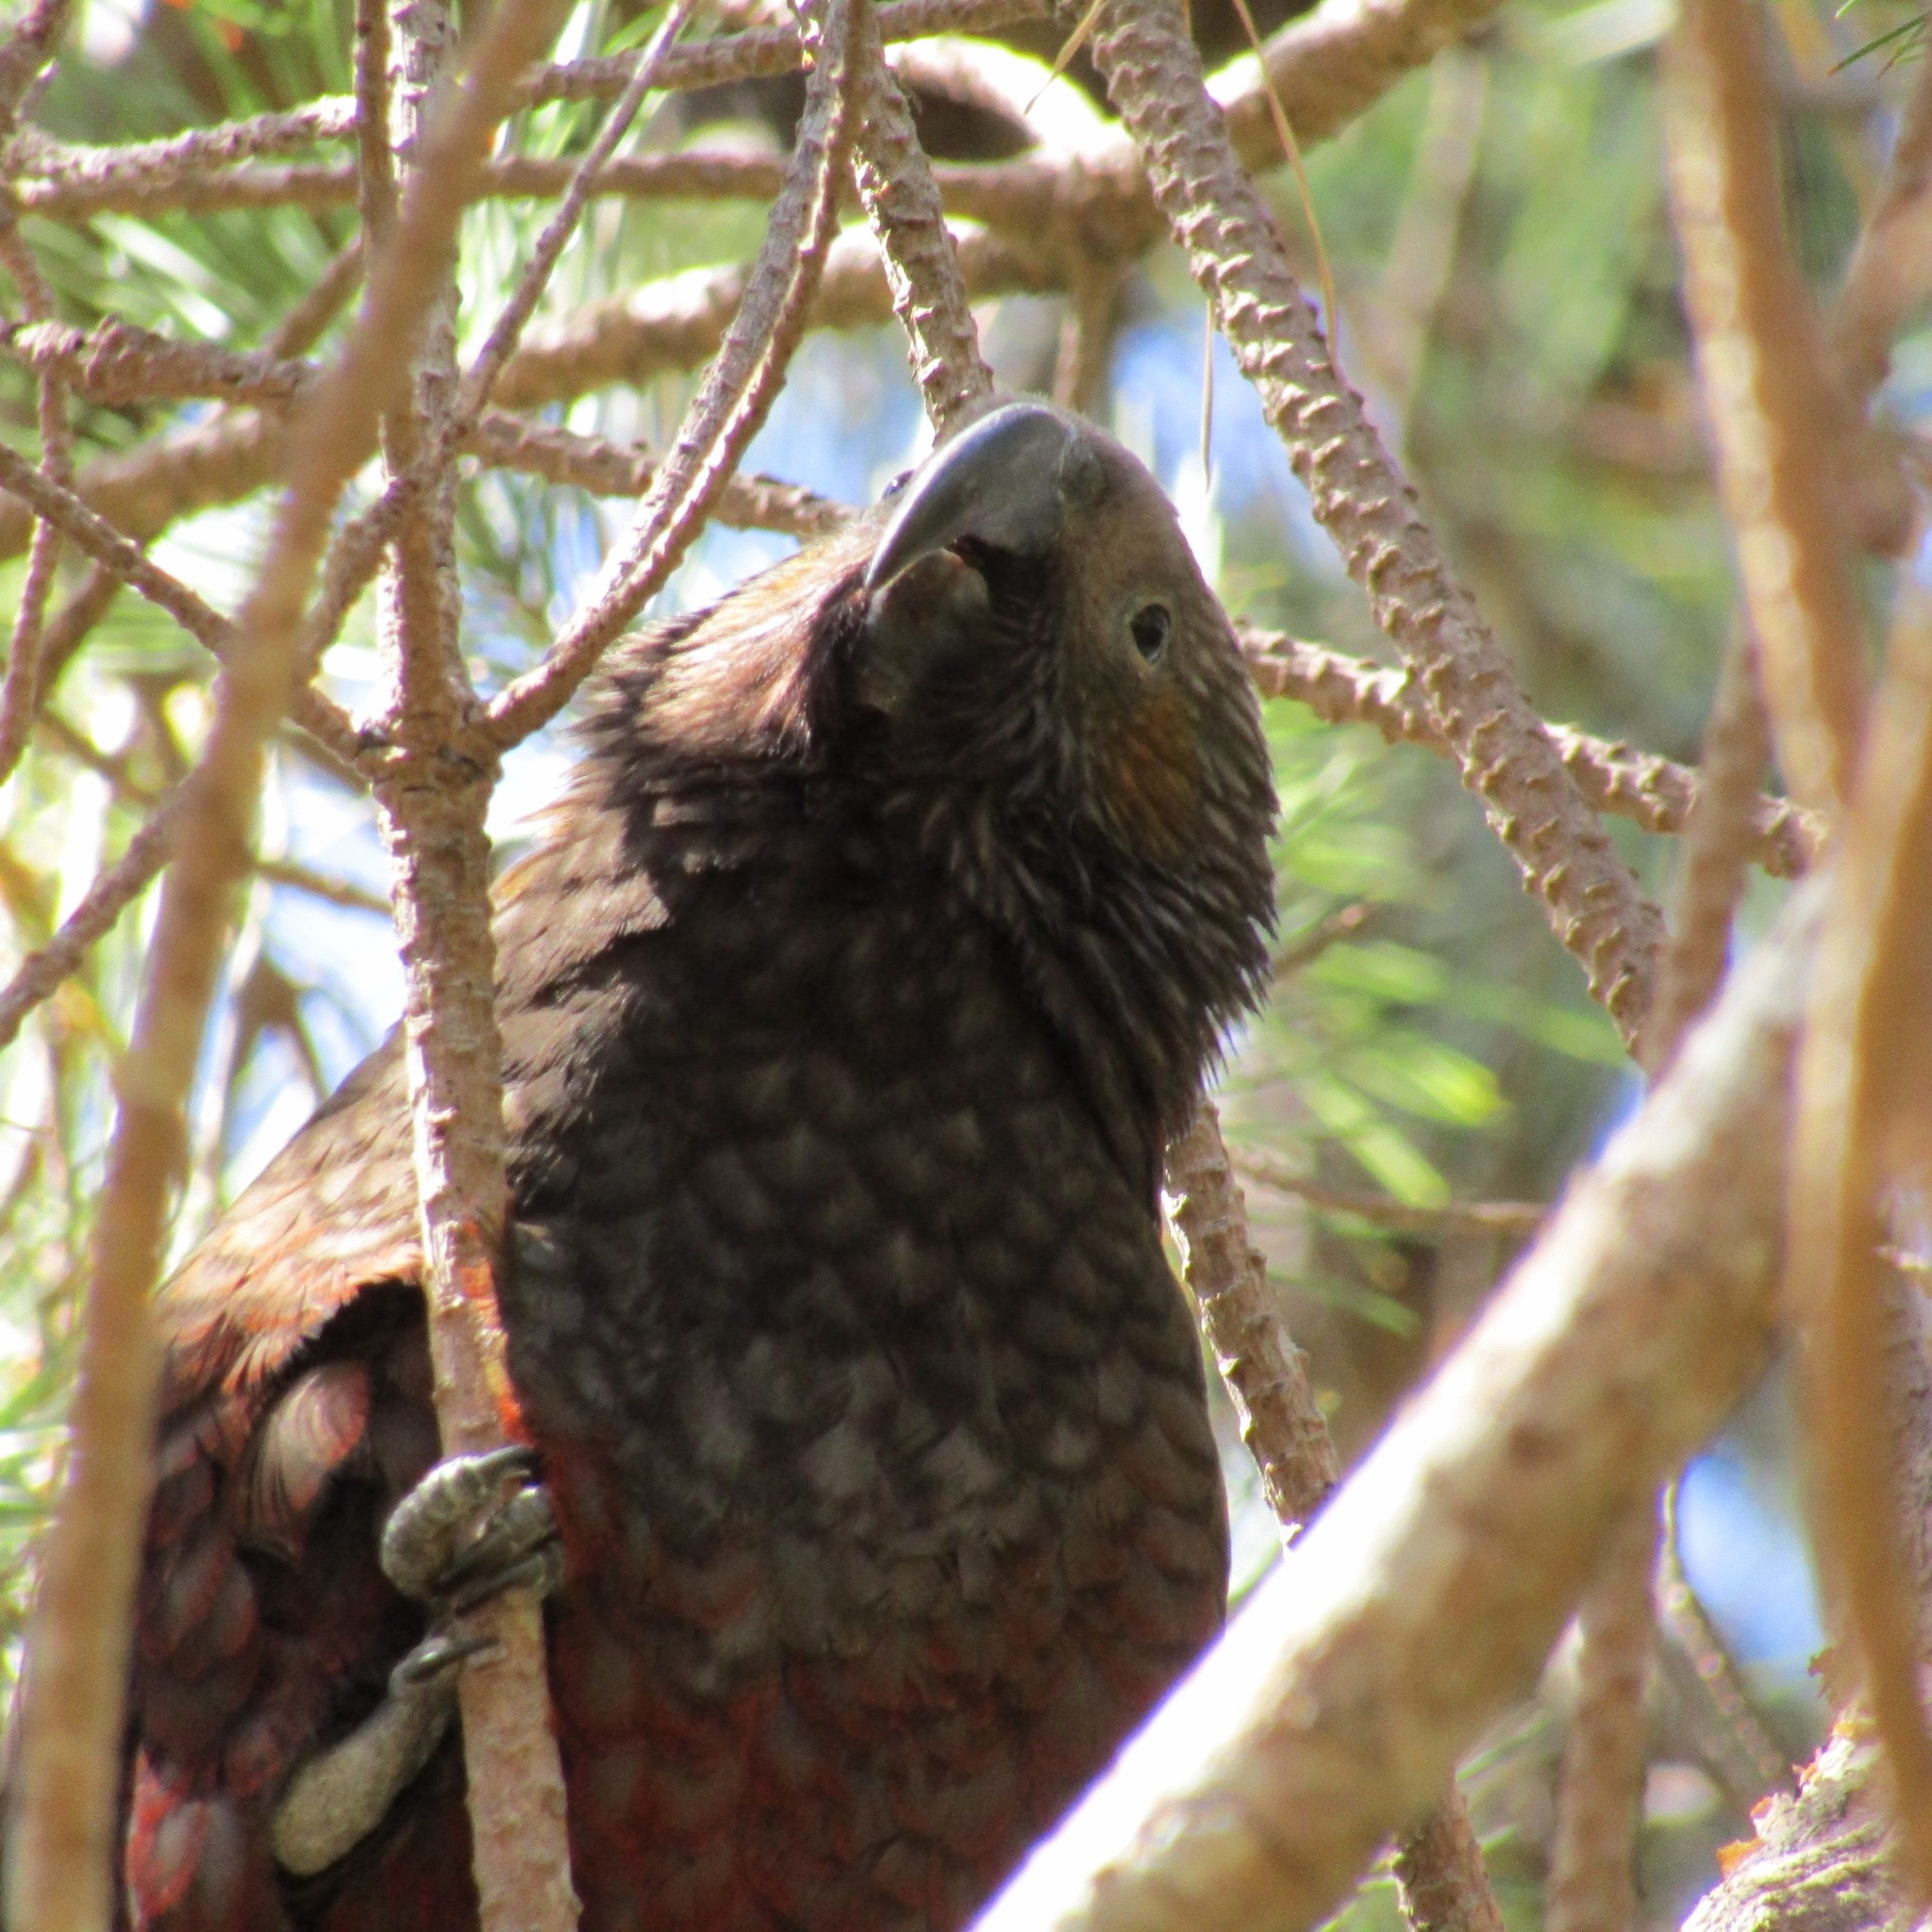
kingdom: Animalia
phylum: Chordata
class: Aves
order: Psittaciformes
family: Psittacidae
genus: Nestor
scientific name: Nestor meridionalis
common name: New zealand kaka
